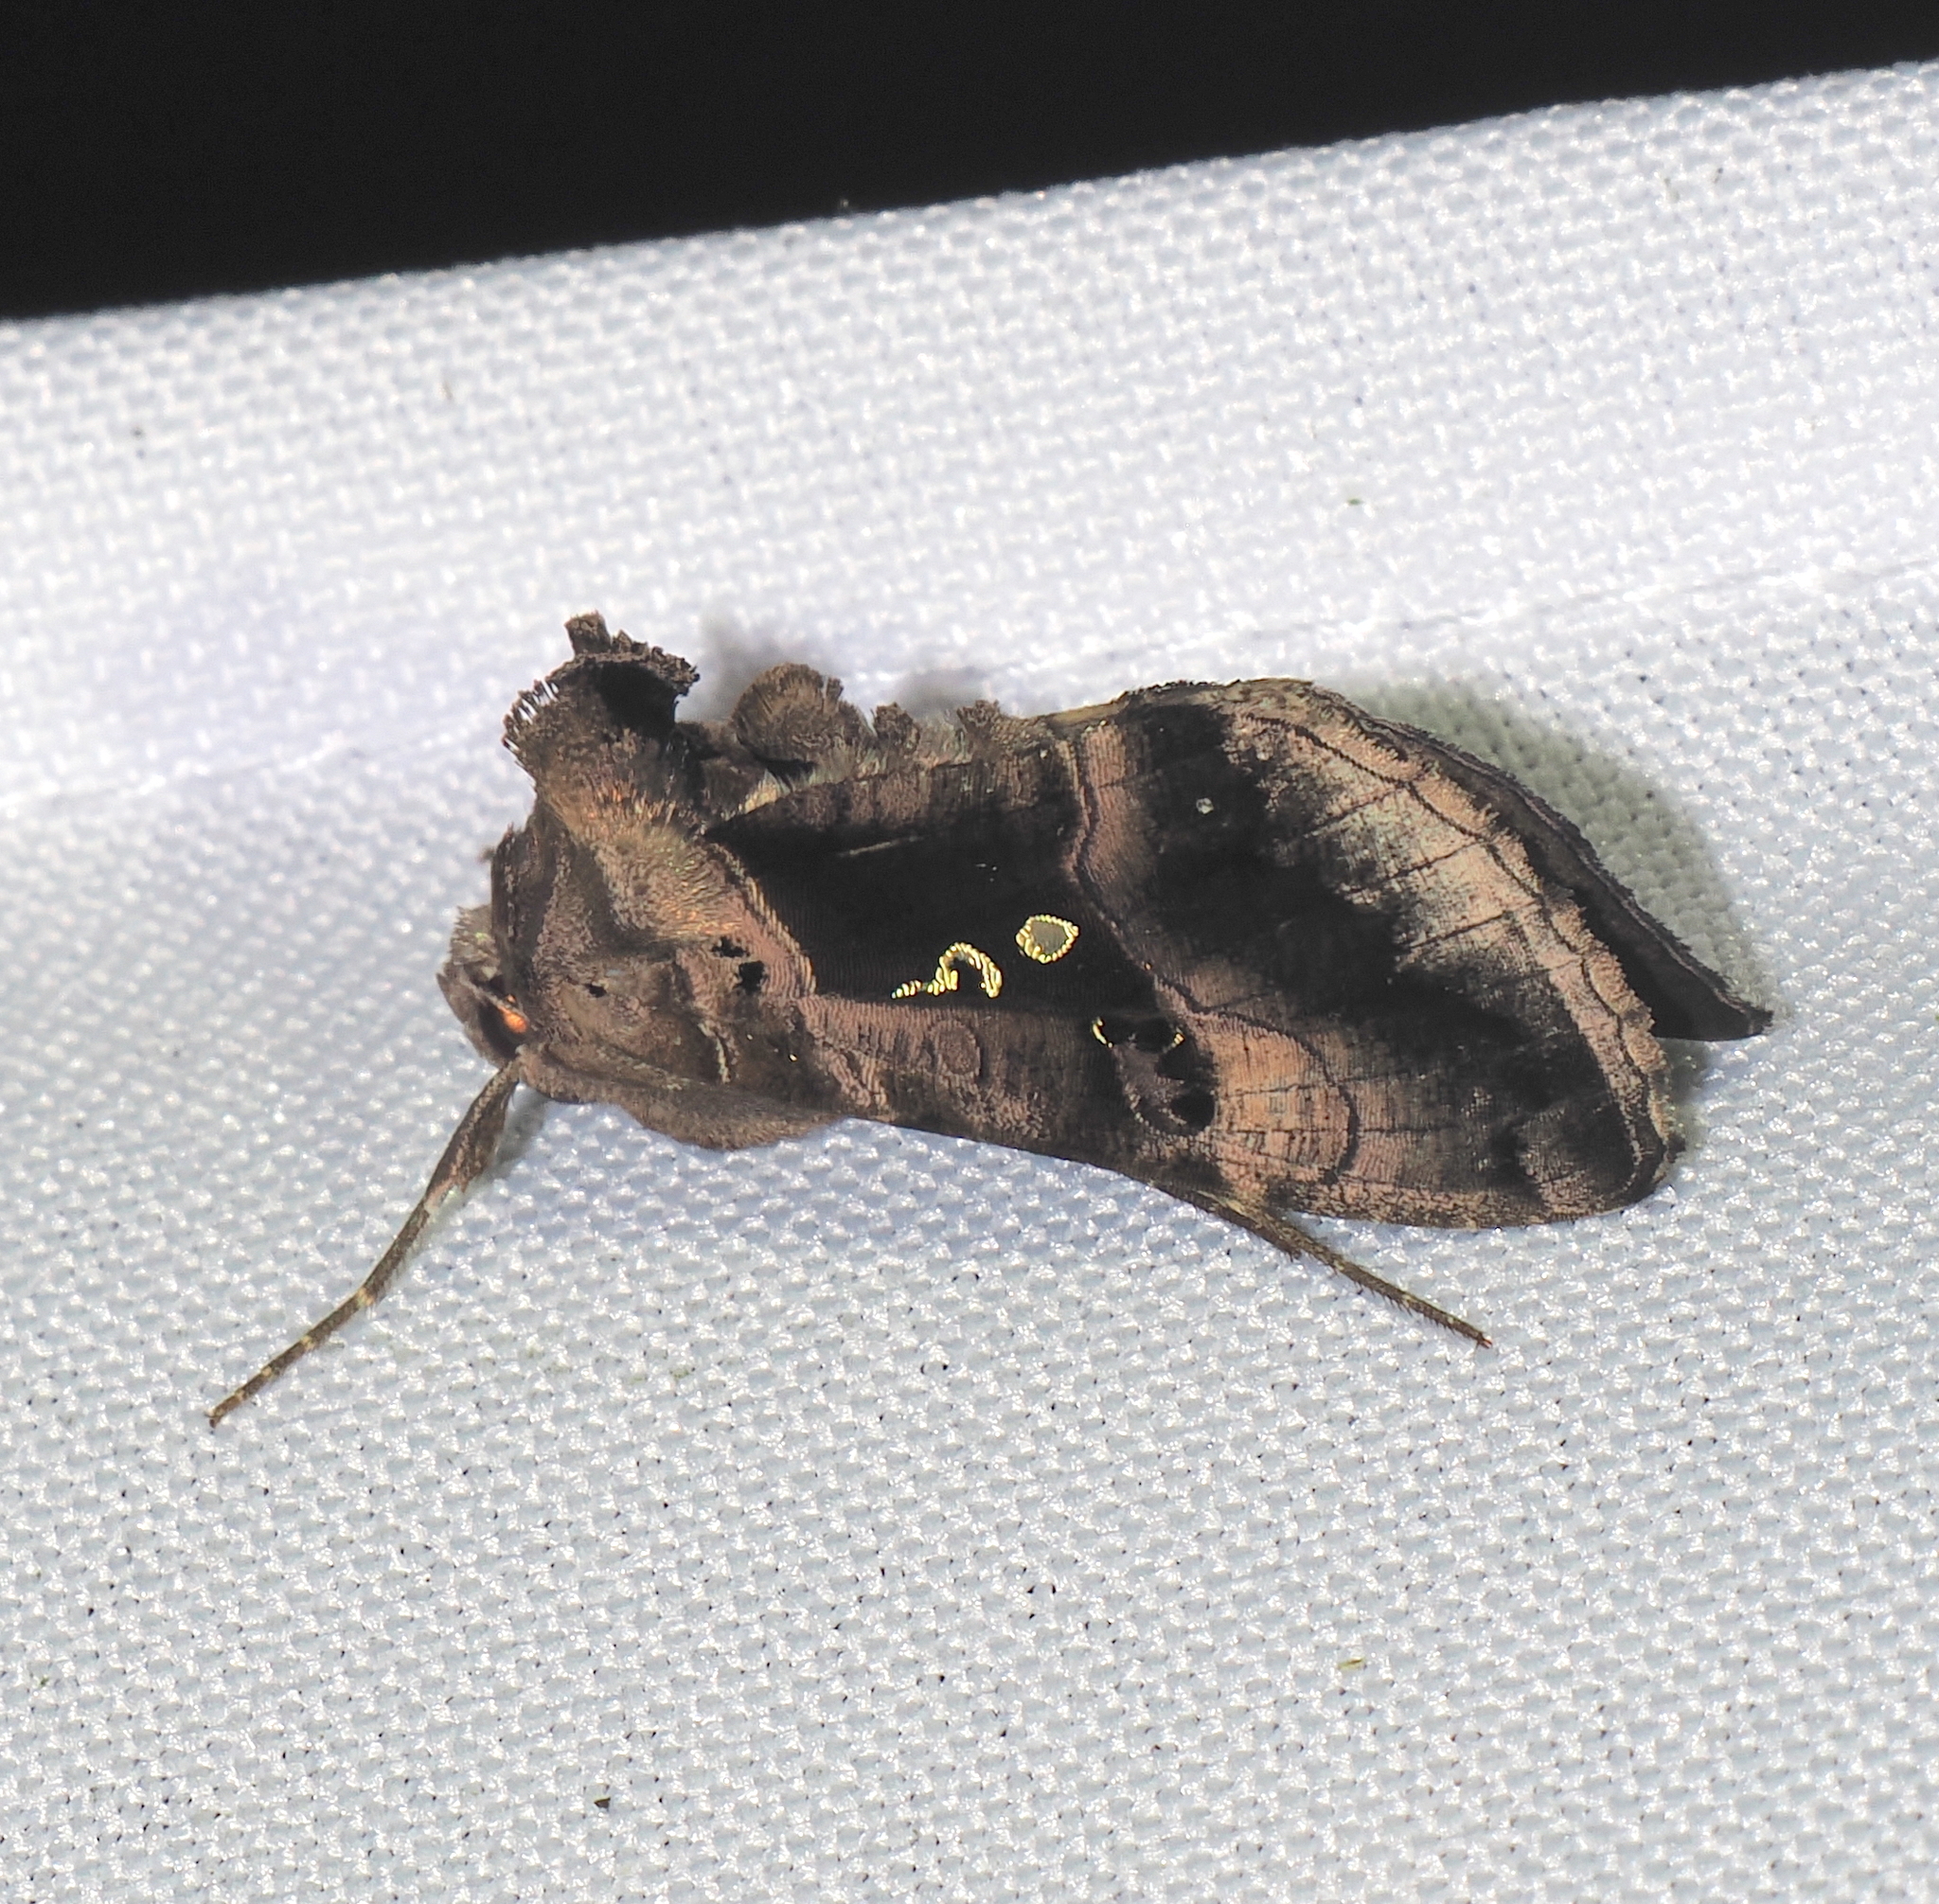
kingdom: Animalia
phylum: Arthropoda
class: Insecta
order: Lepidoptera
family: Noctuidae
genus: Agrapha
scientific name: Agrapha meretricia
